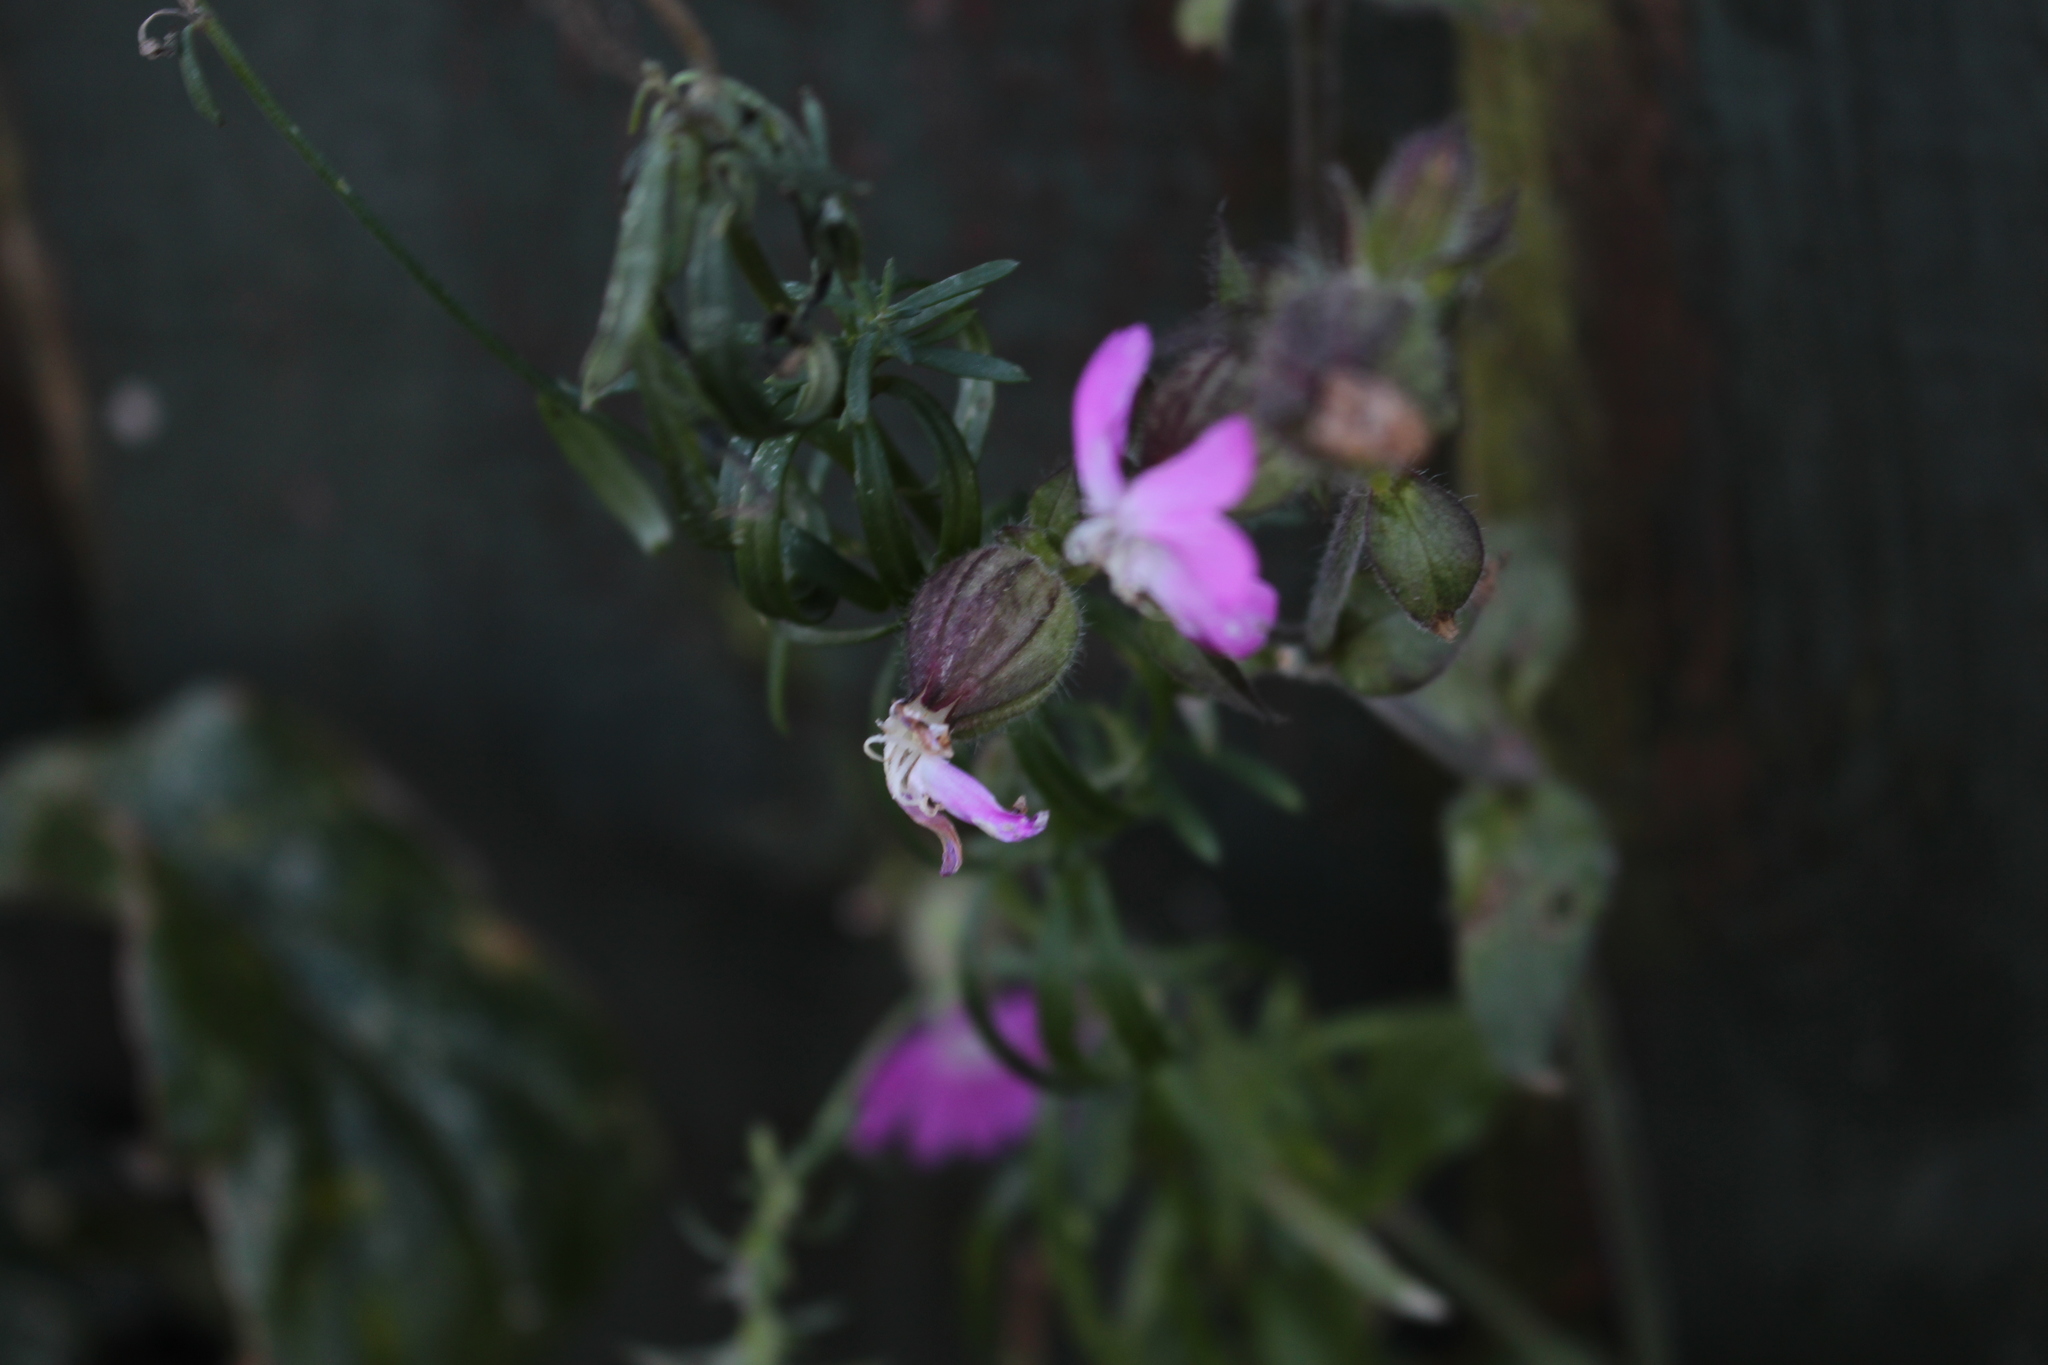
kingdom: Plantae
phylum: Tracheophyta
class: Magnoliopsida
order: Caryophyllales
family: Caryophyllaceae
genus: Silene
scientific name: Silene dioica
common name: Red campion
